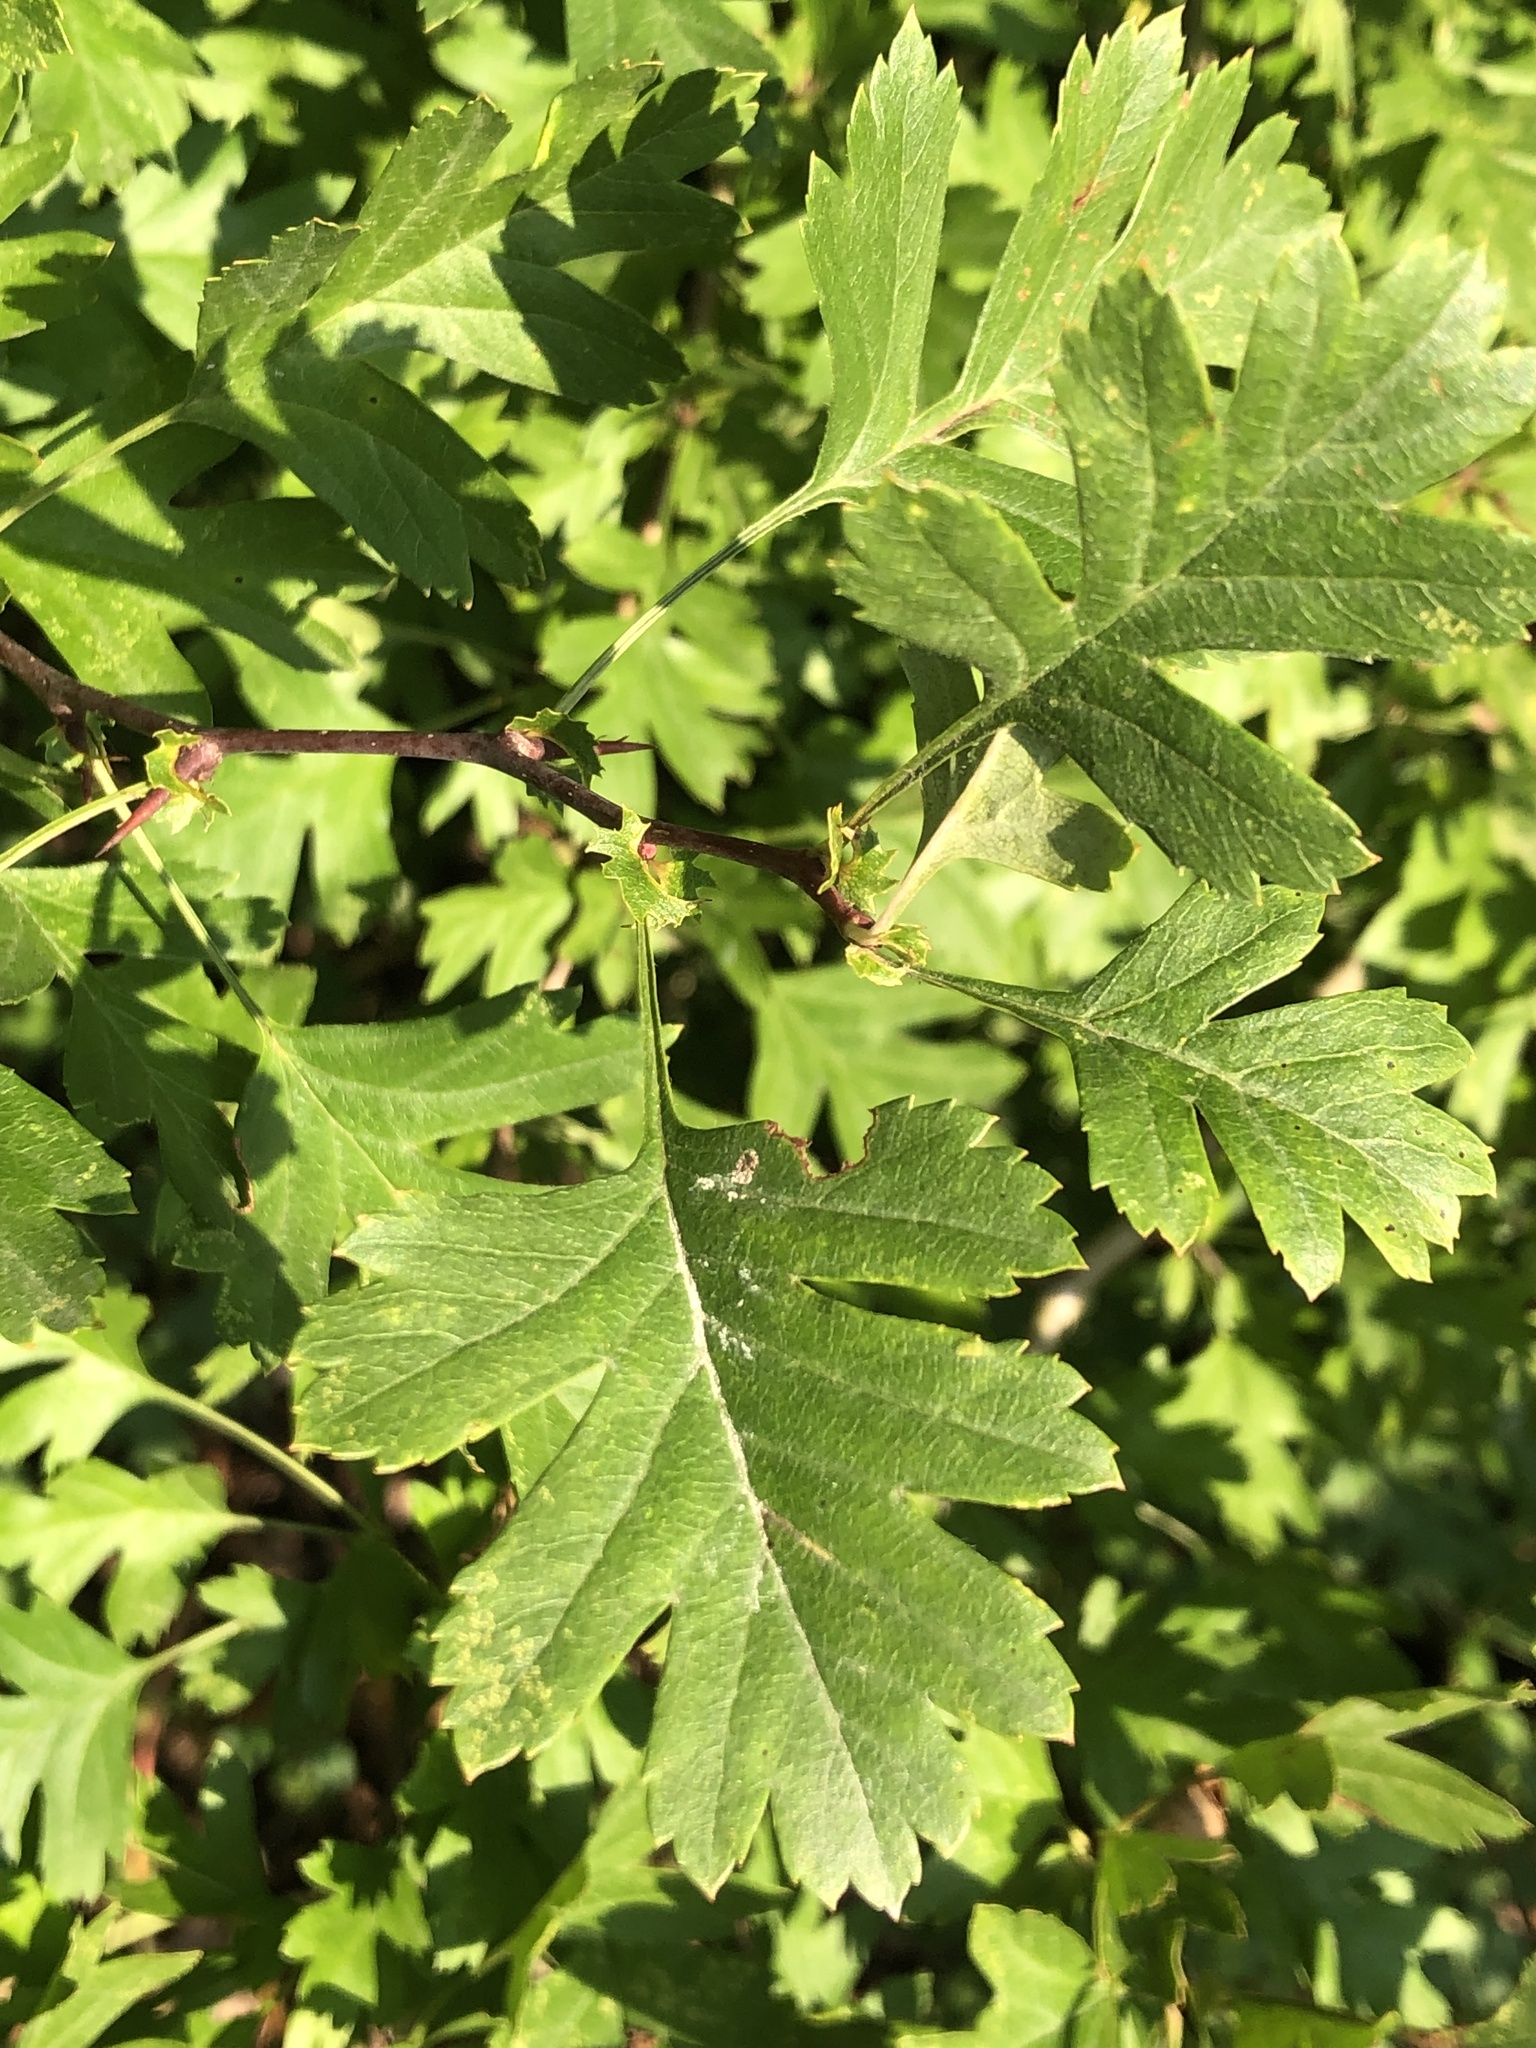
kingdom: Plantae
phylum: Tracheophyta
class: Magnoliopsida
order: Rosales
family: Rosaceae
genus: Crataegus
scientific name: Crataegus monogyna
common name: Hawthorn
